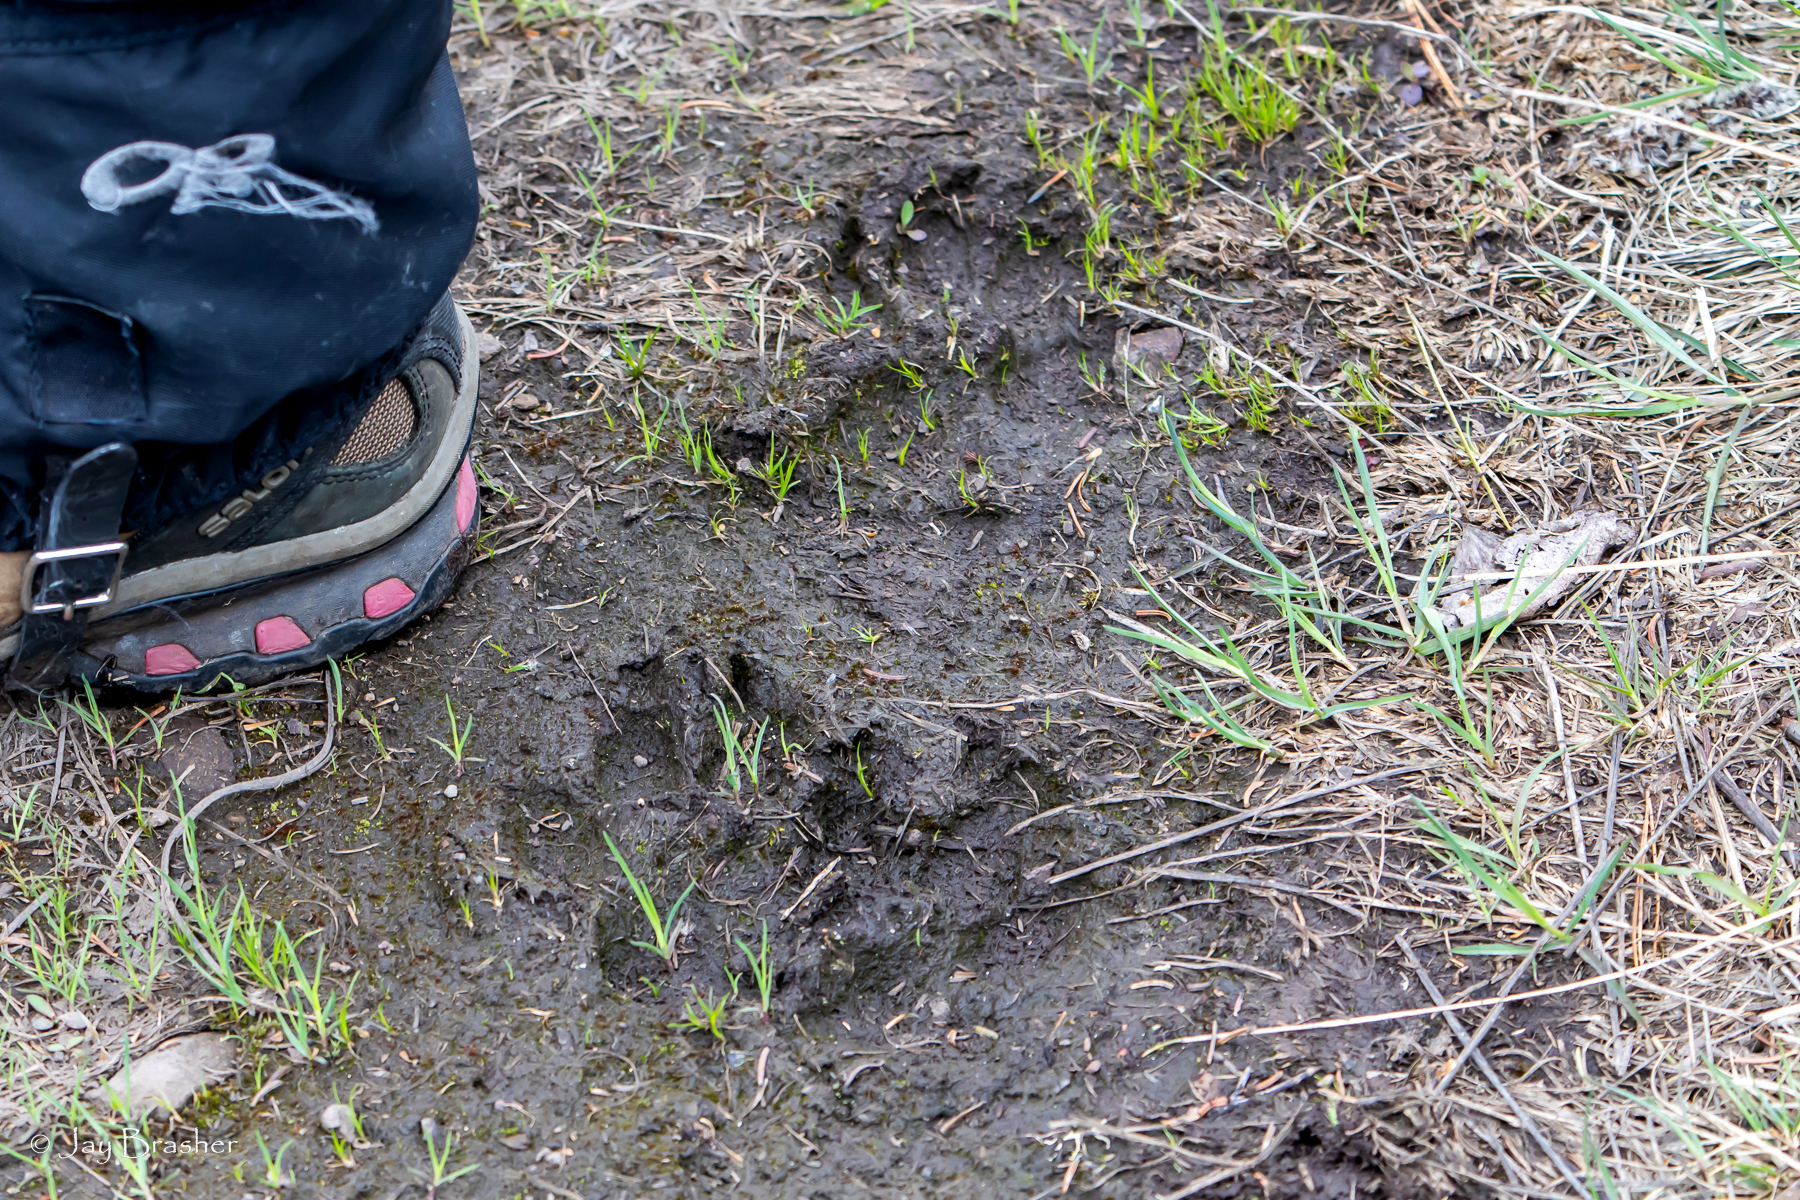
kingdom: Animalia
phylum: Chordata
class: Mammalia
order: Carnivora
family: Canidae
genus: Canis
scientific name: Canis lupus
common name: Gray wolf
